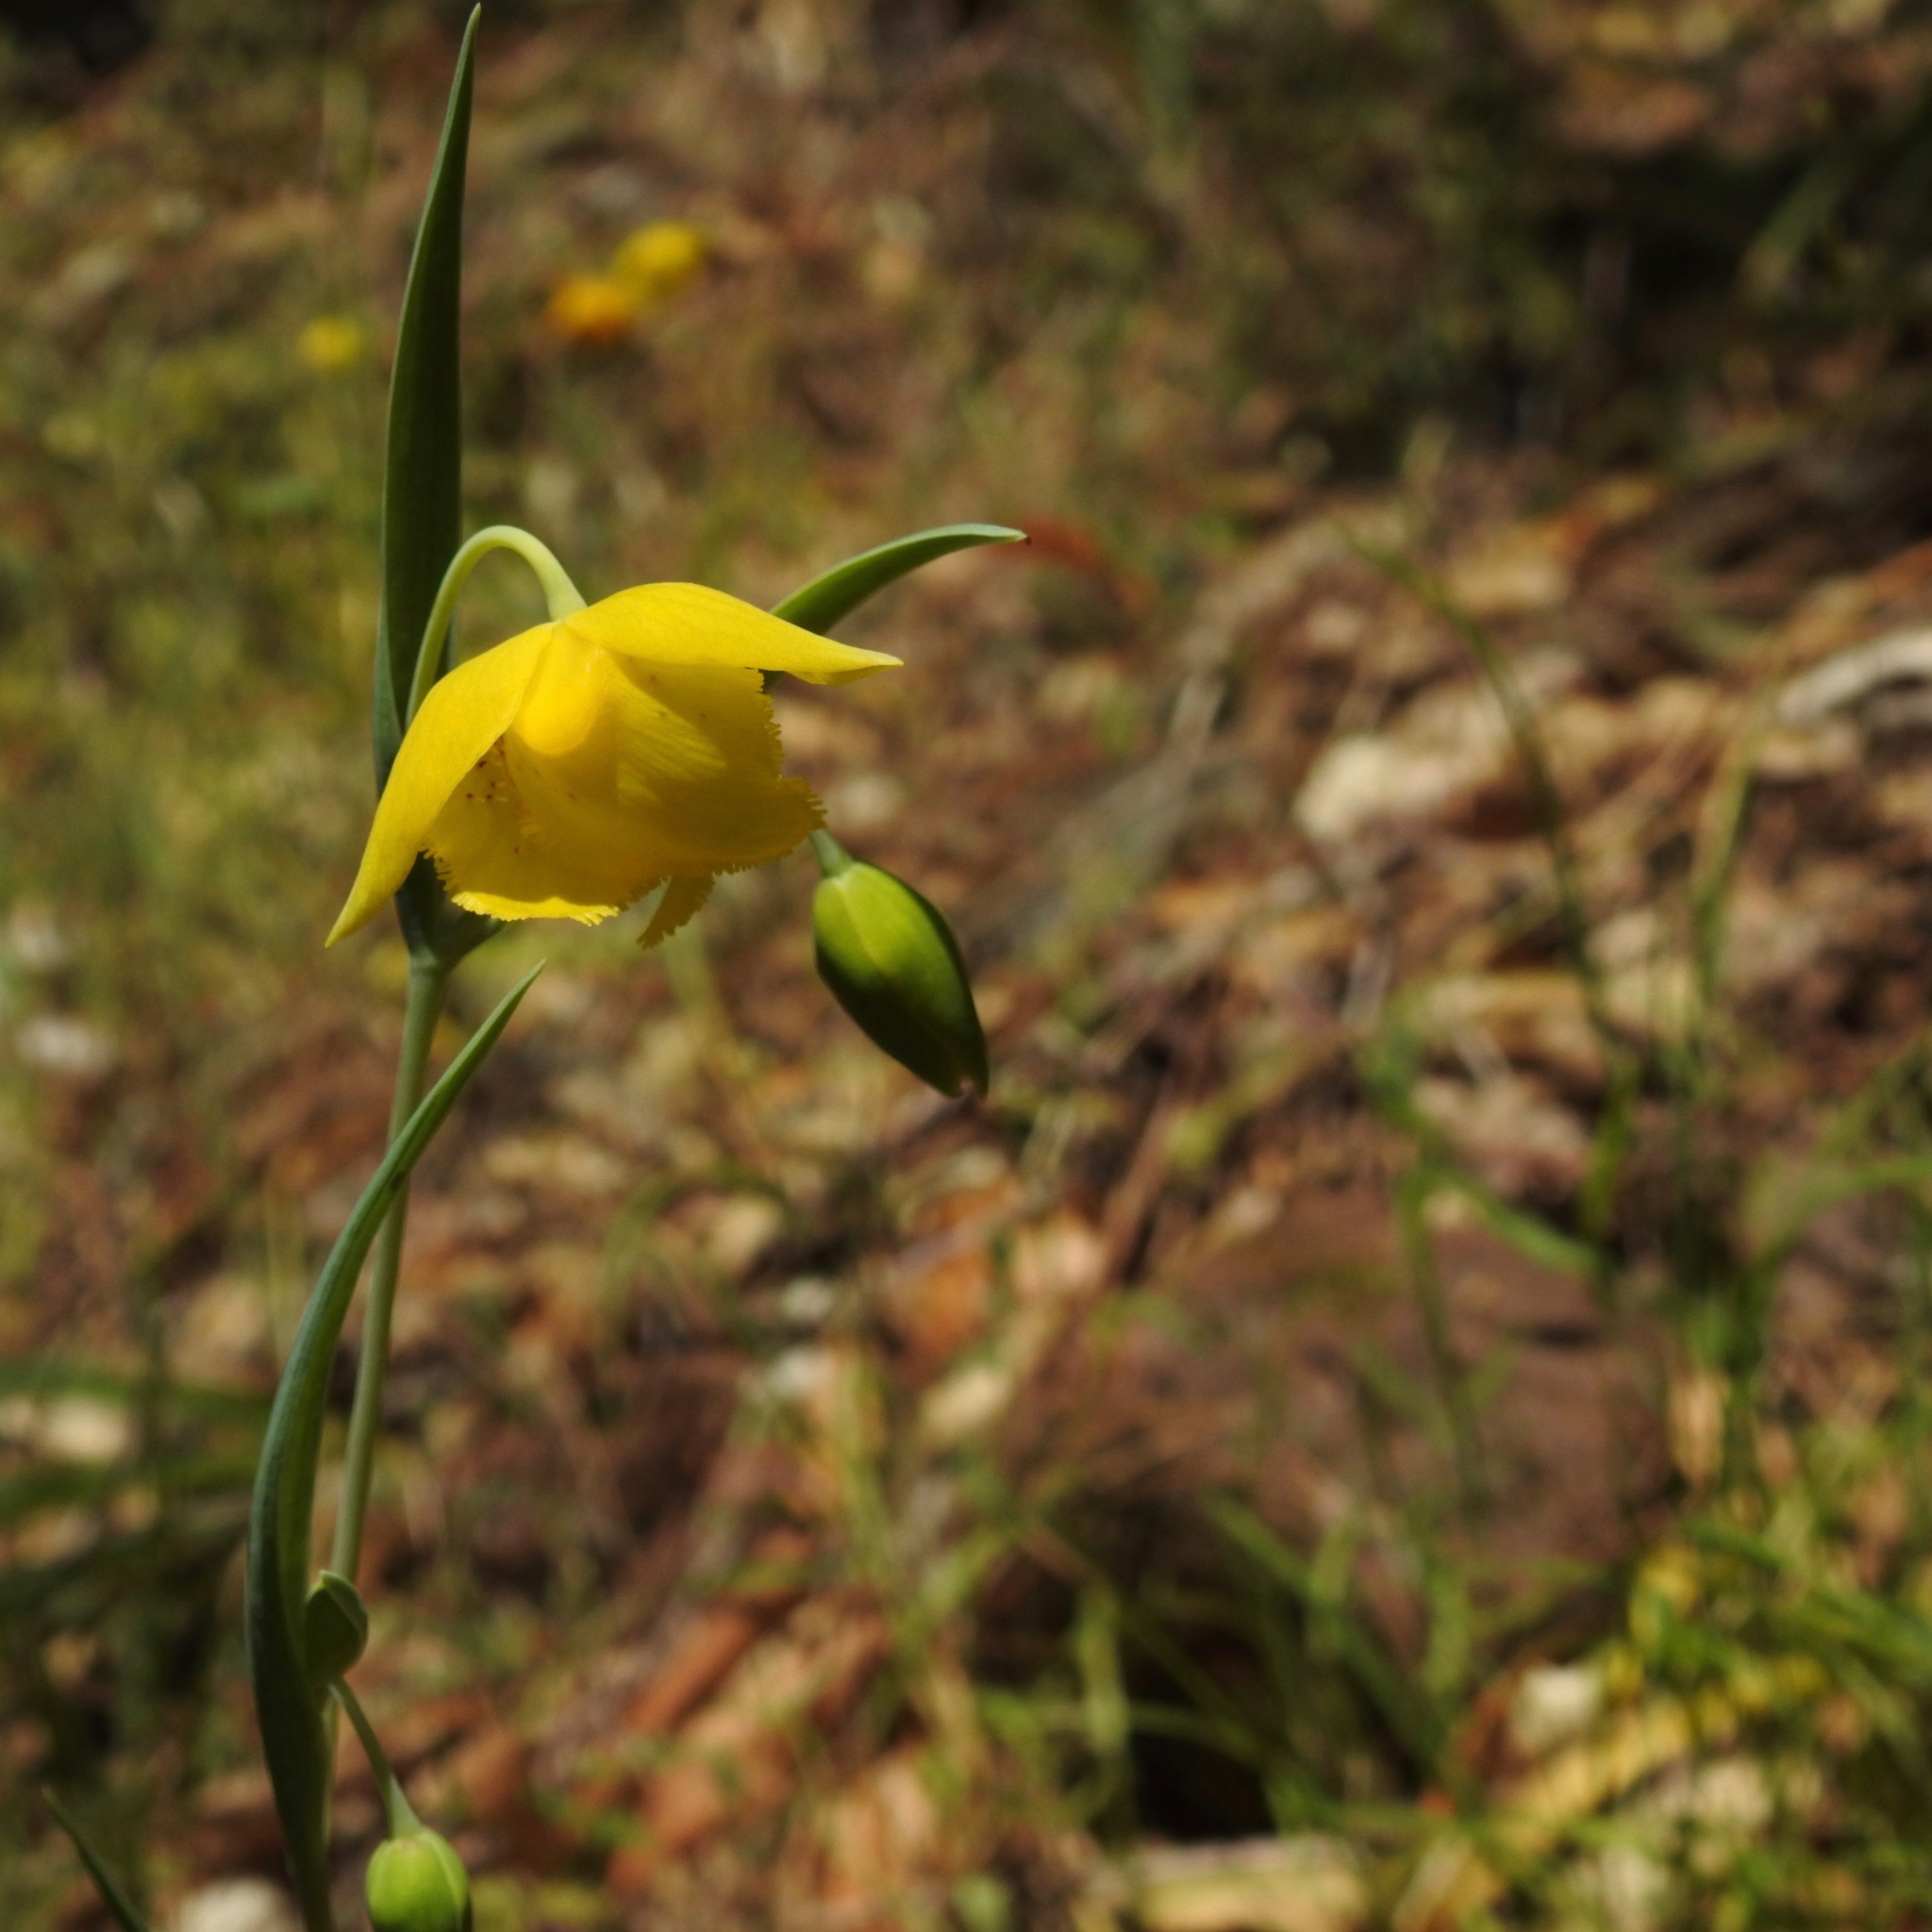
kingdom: Plantae
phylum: Tracheophyta
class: Liliopsida
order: Liliales
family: Liliaceae
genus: Calochortus
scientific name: Calochortus amabilis
